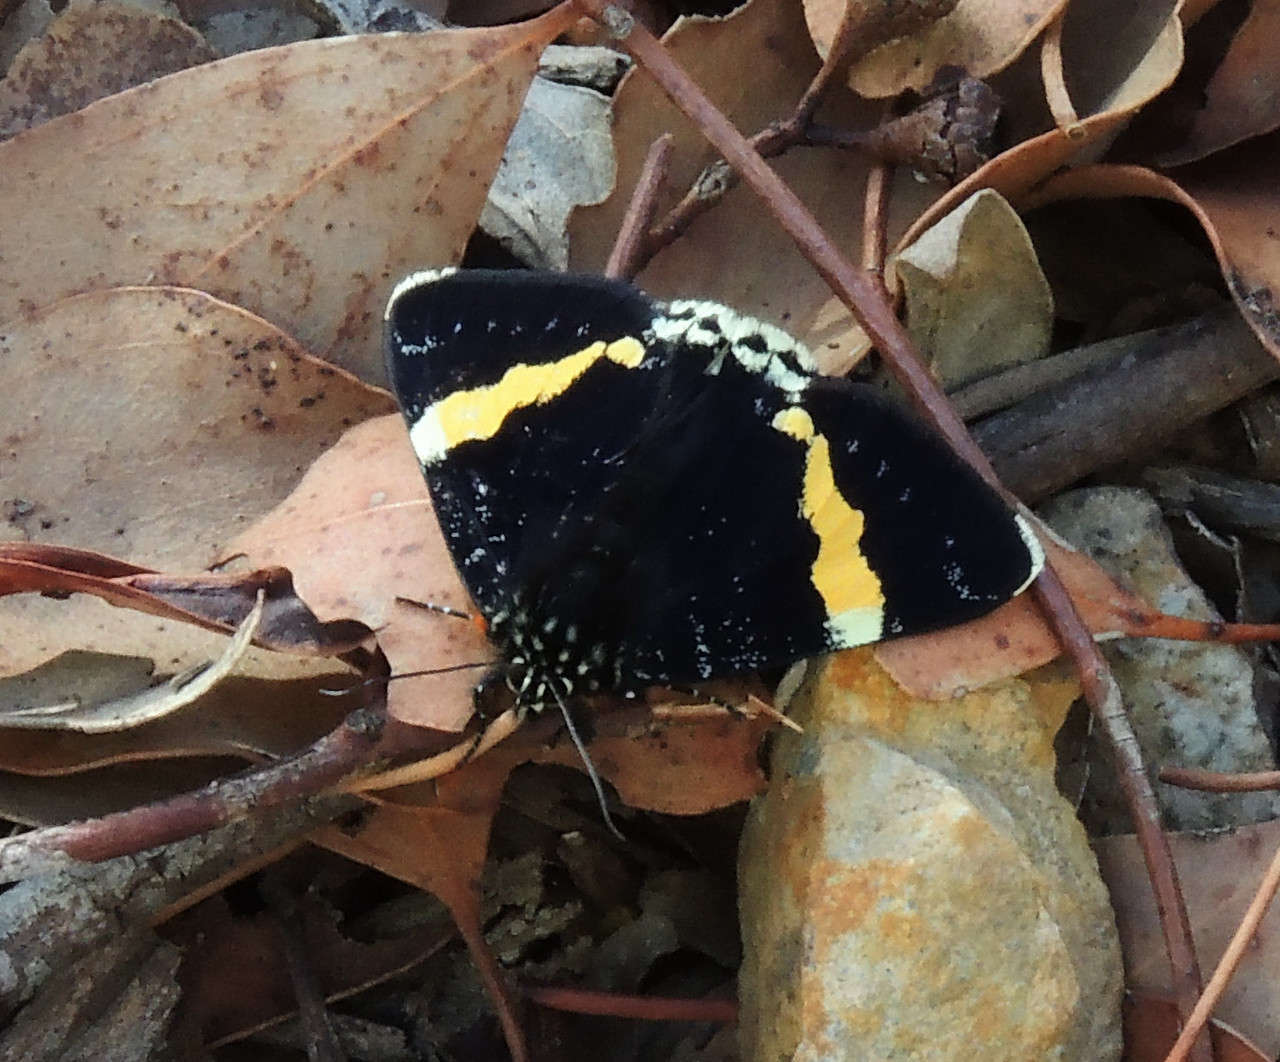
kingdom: Animalia
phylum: Arthropoda
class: Insecta
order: Lepidoptera
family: Noctuidae
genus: Eutrichopidia
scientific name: Eutrichopidia latinus
